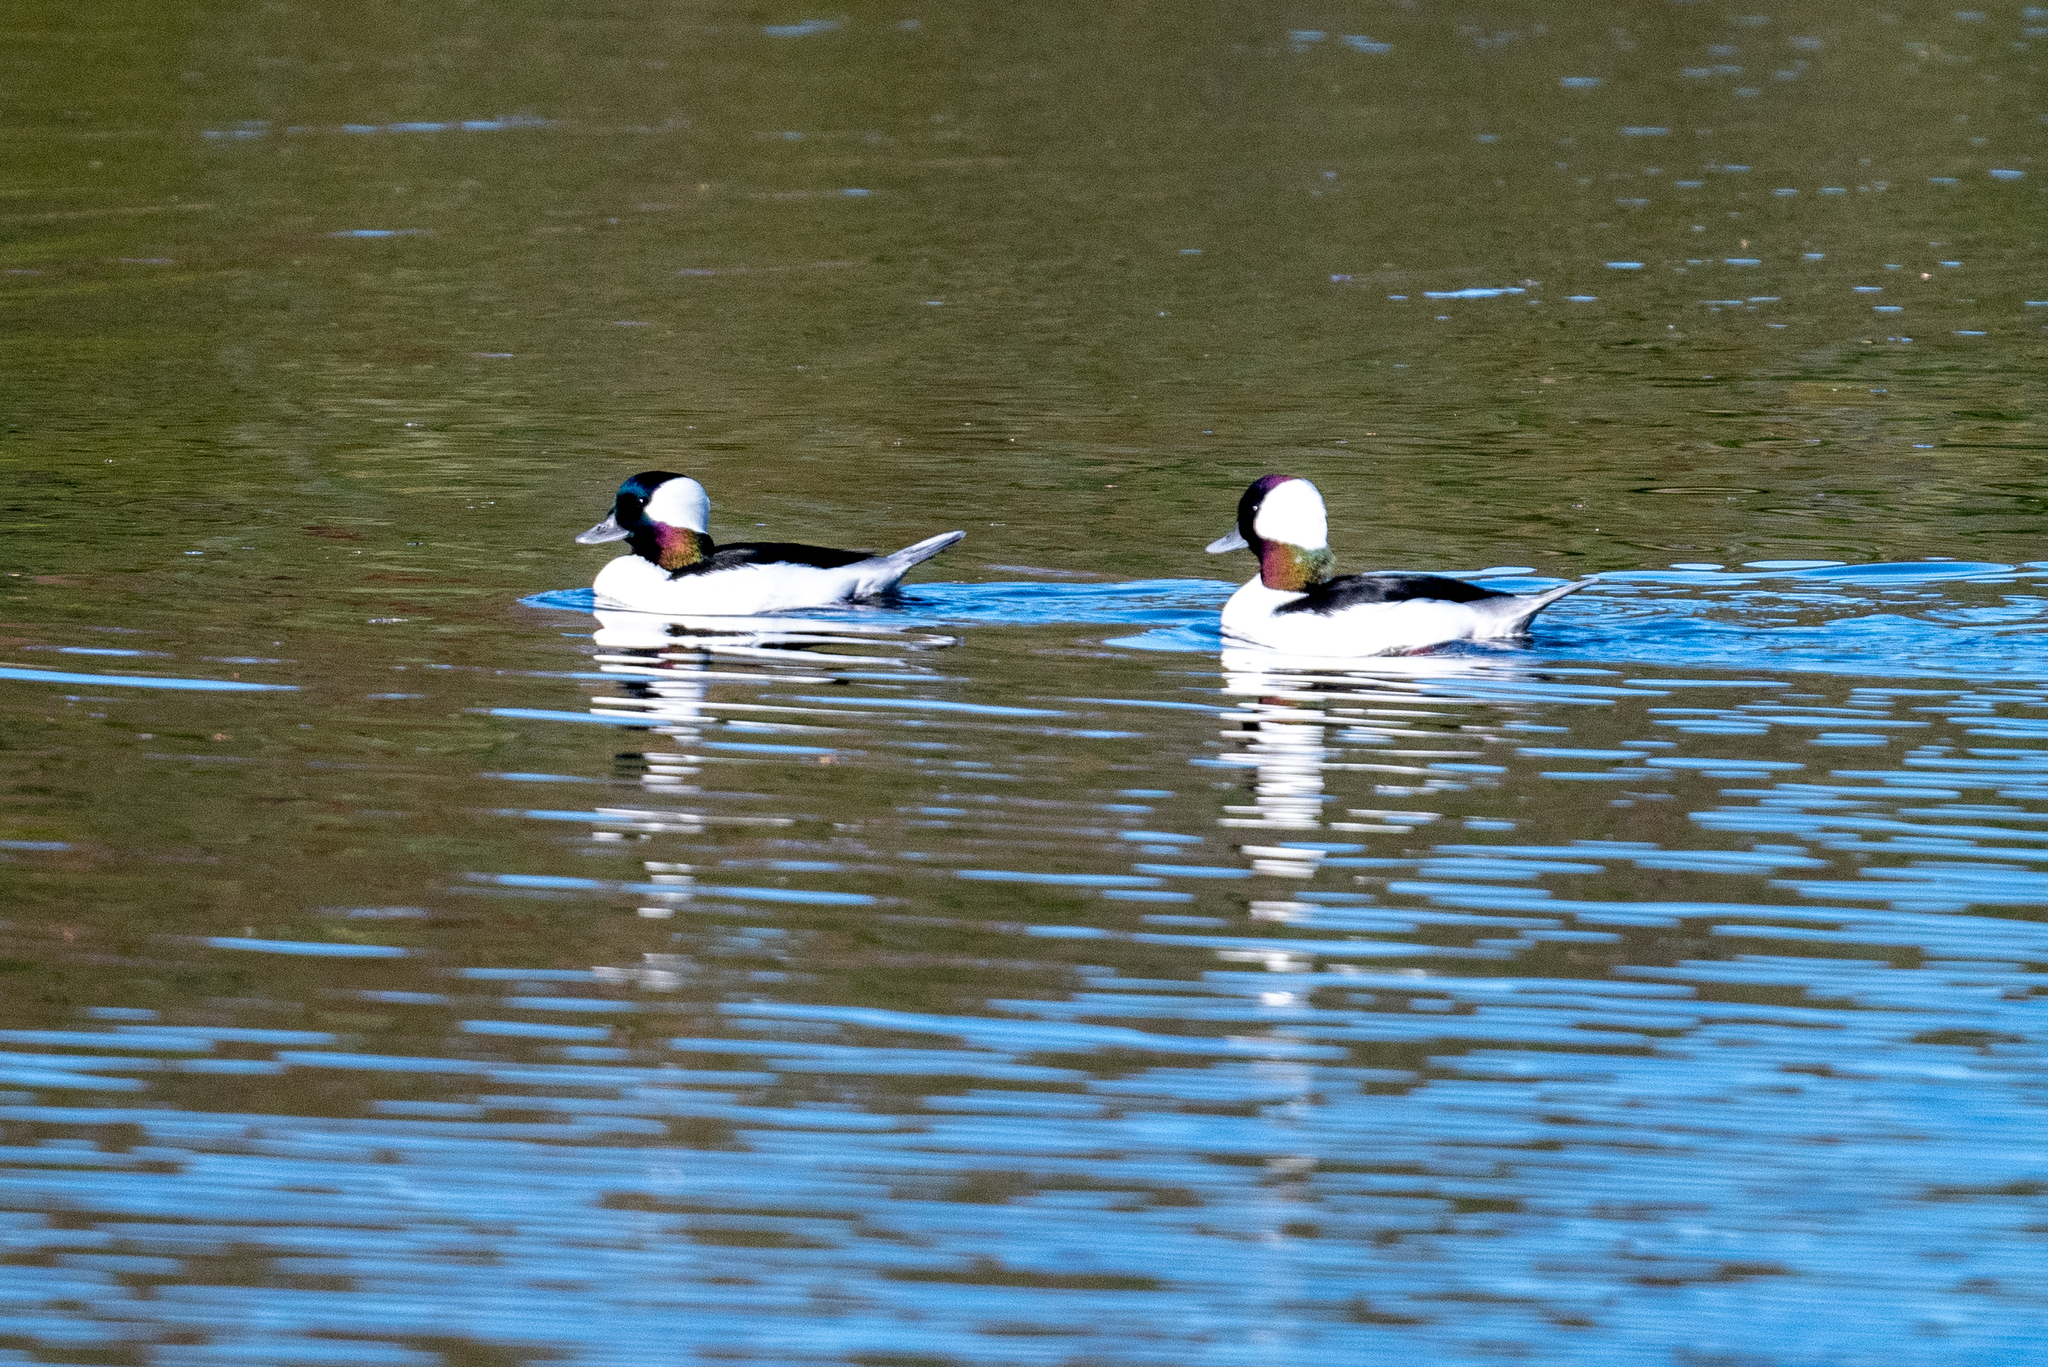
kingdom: Animalia
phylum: Chordata
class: Aves
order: Anseriformes
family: Anatidae
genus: Bucephala
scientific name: Bucephala albeola
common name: Bufflehead
